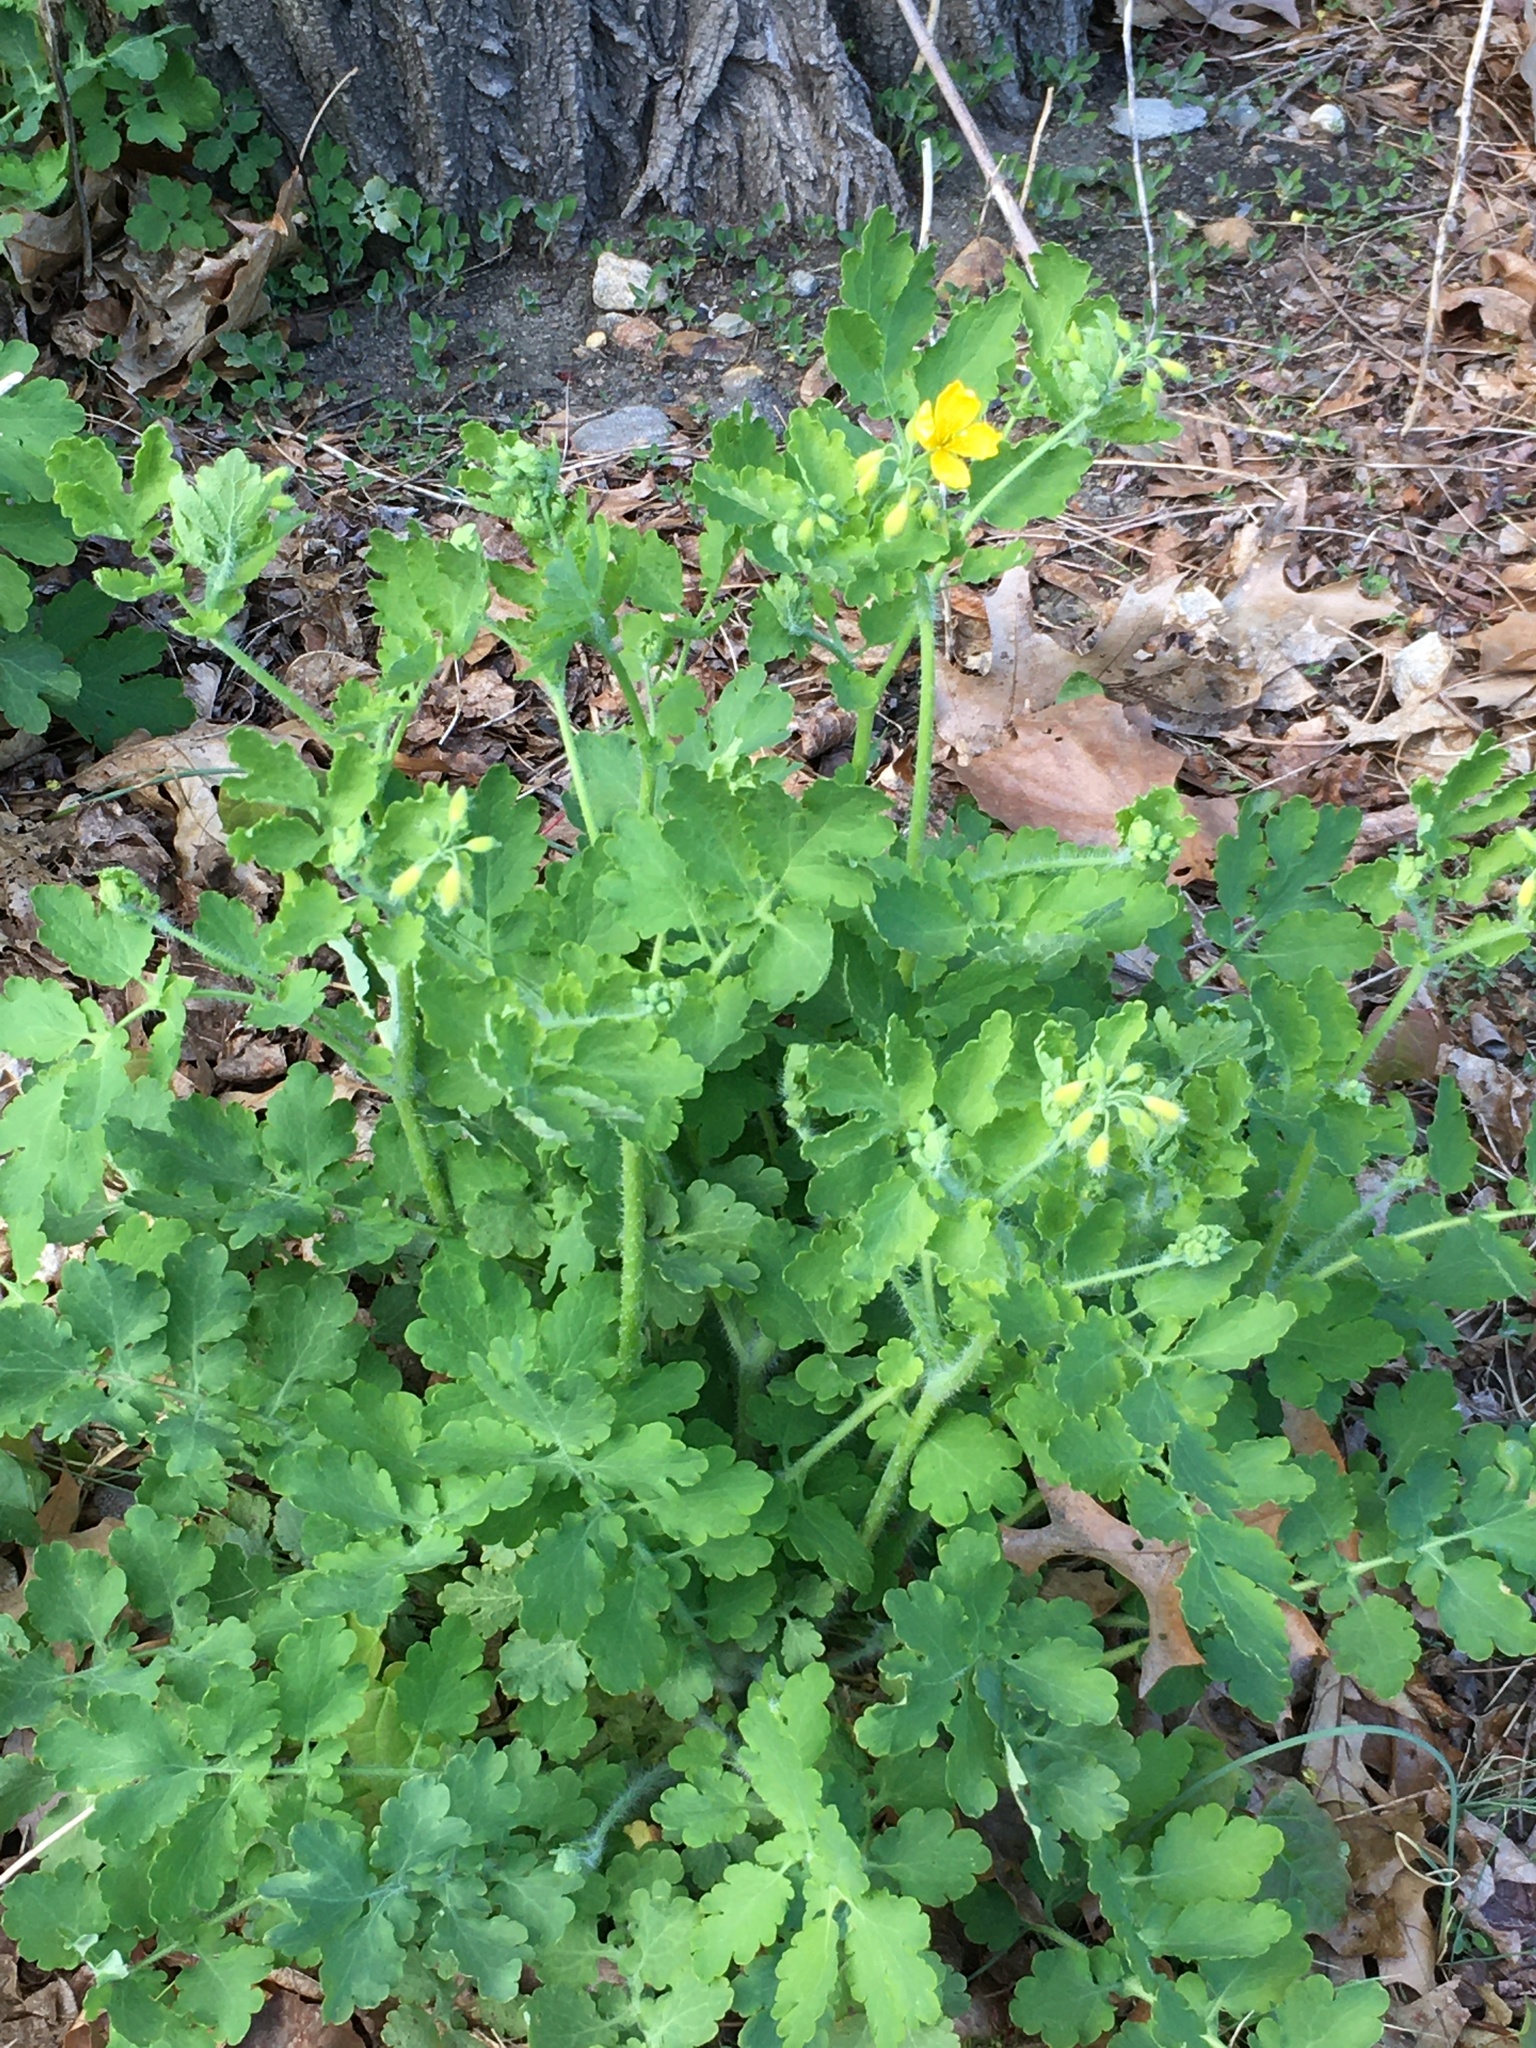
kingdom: Plantae
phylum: Tracheophyta
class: Magnoliopsida
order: Ranunculales
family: Papaveraceae
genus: Chelidonium
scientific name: Chelidonium majus
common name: Greater celandine
